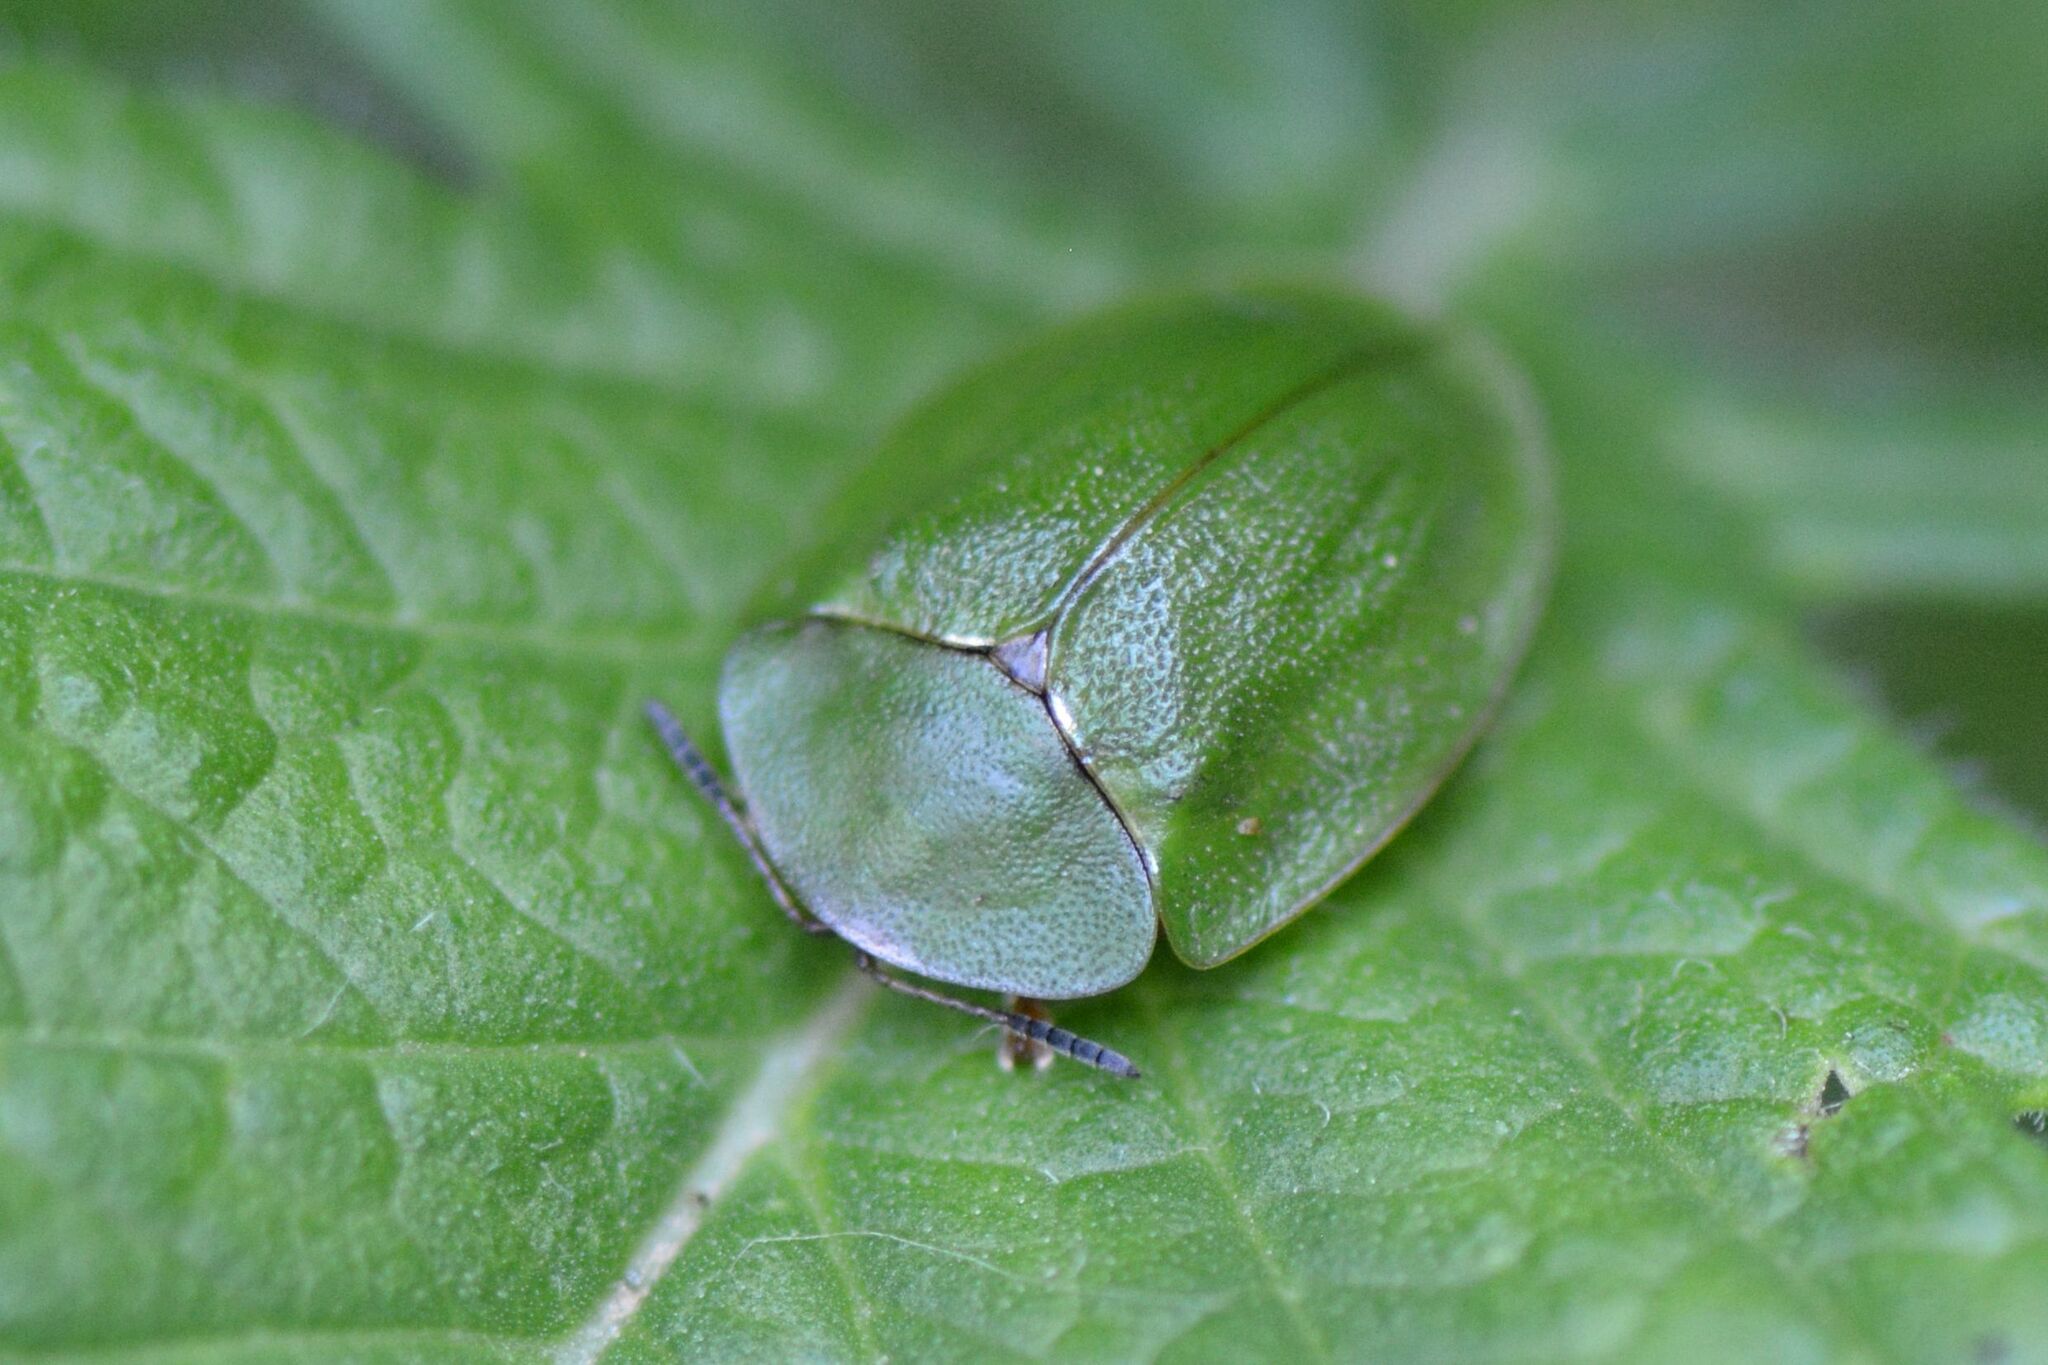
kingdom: Animalia
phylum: Arthropoda
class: Insecta
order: Coleoptera
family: Chrysomelidae
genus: Cassida
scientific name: Cassida viridis
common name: Green tortoise beetle
